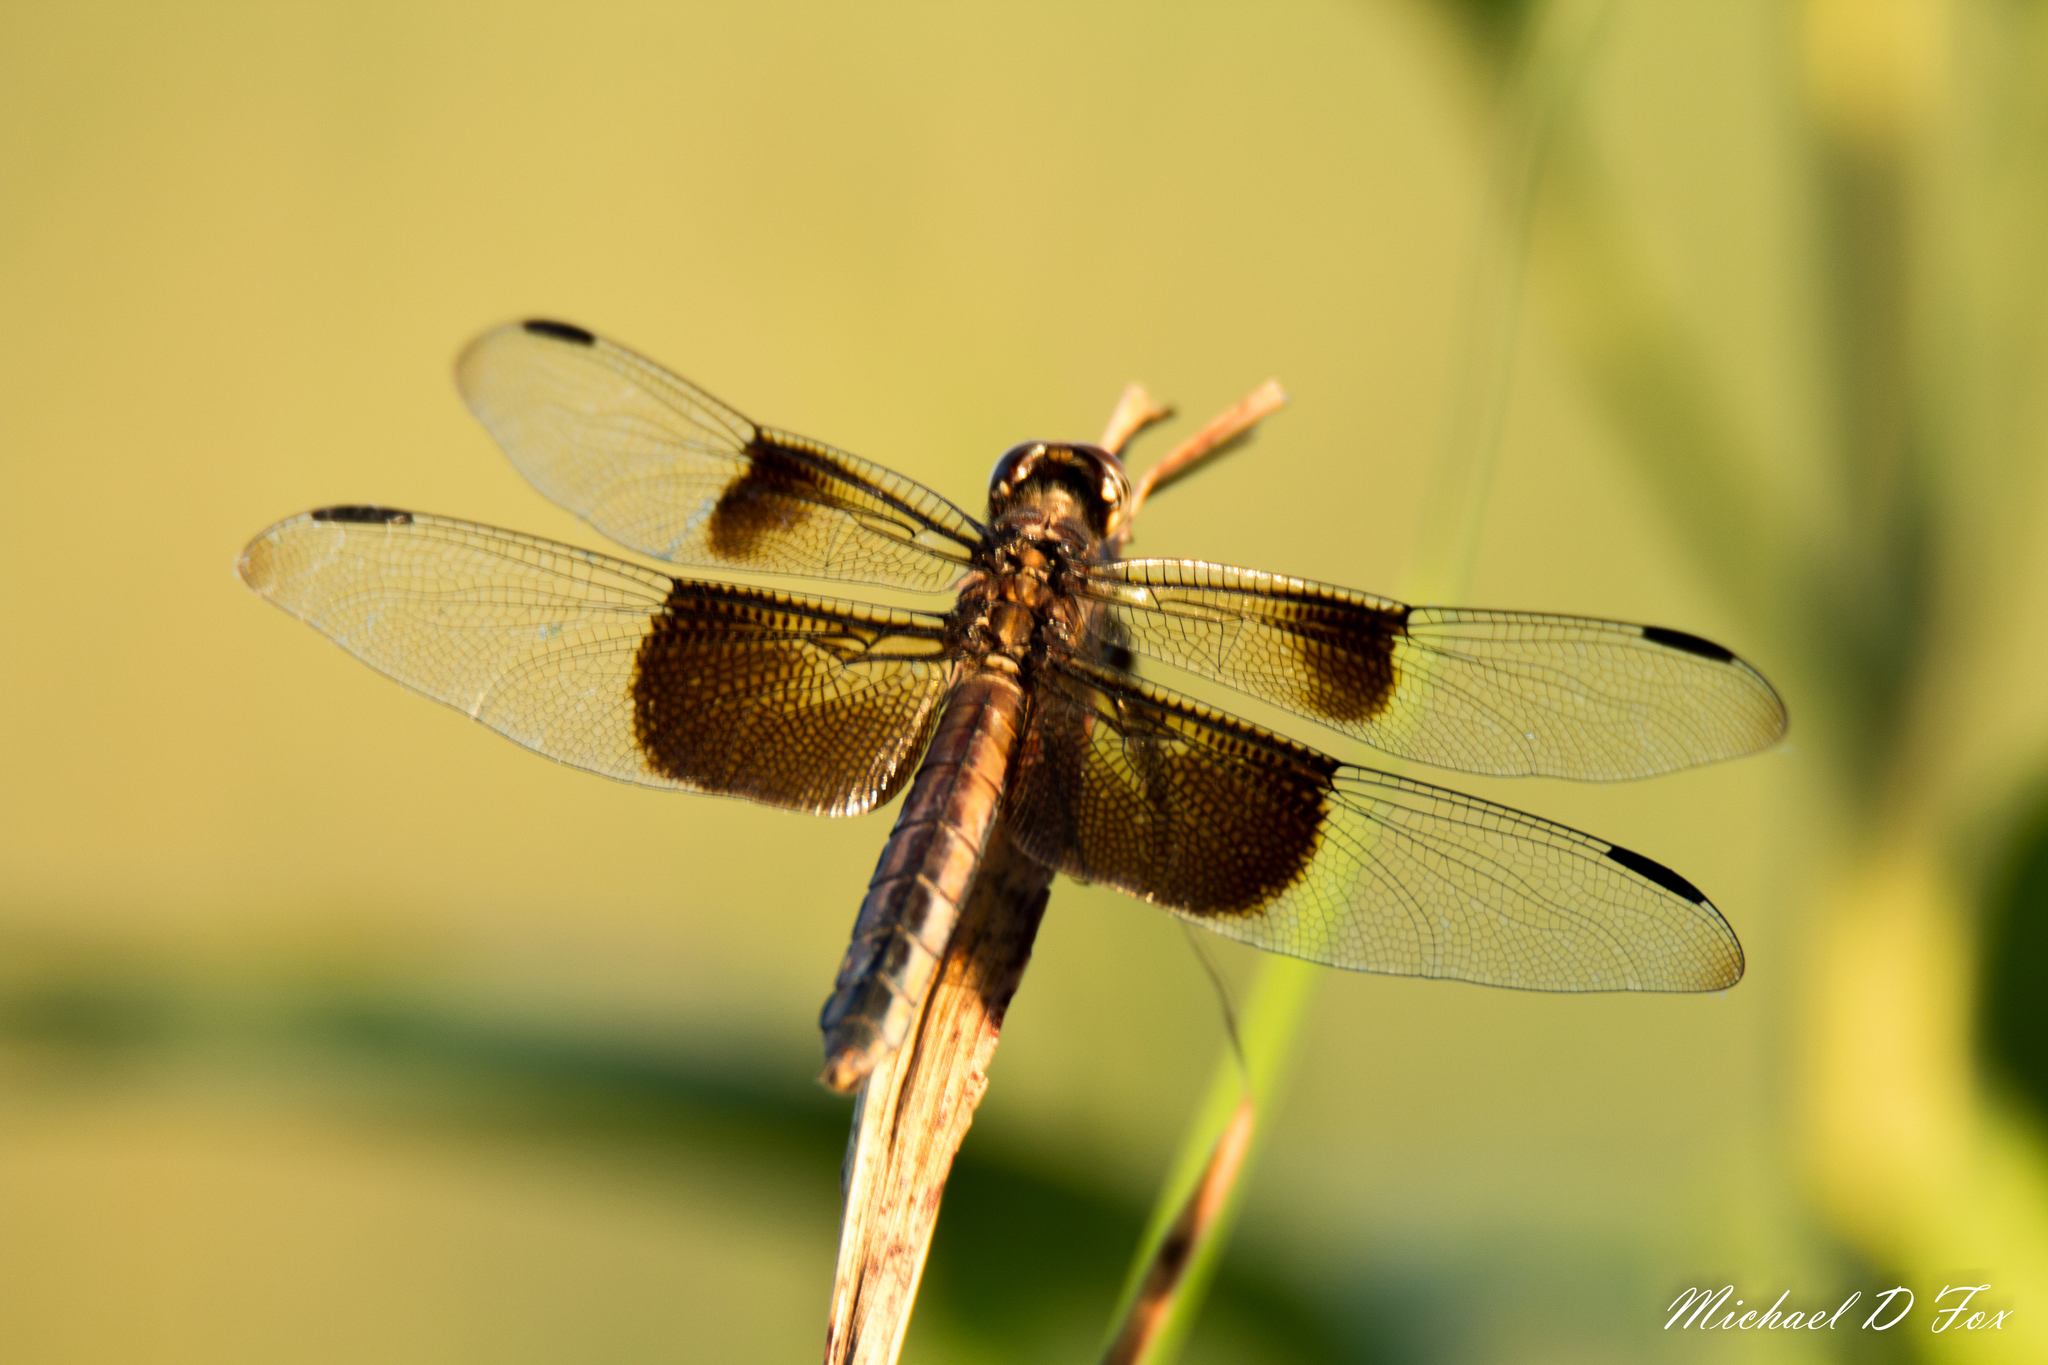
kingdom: Animalia
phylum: Arthropoda
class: Insecta
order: Odonata
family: Libellulidae
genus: Libellula
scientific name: Libellula luctuosa
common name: Widow skimmer
